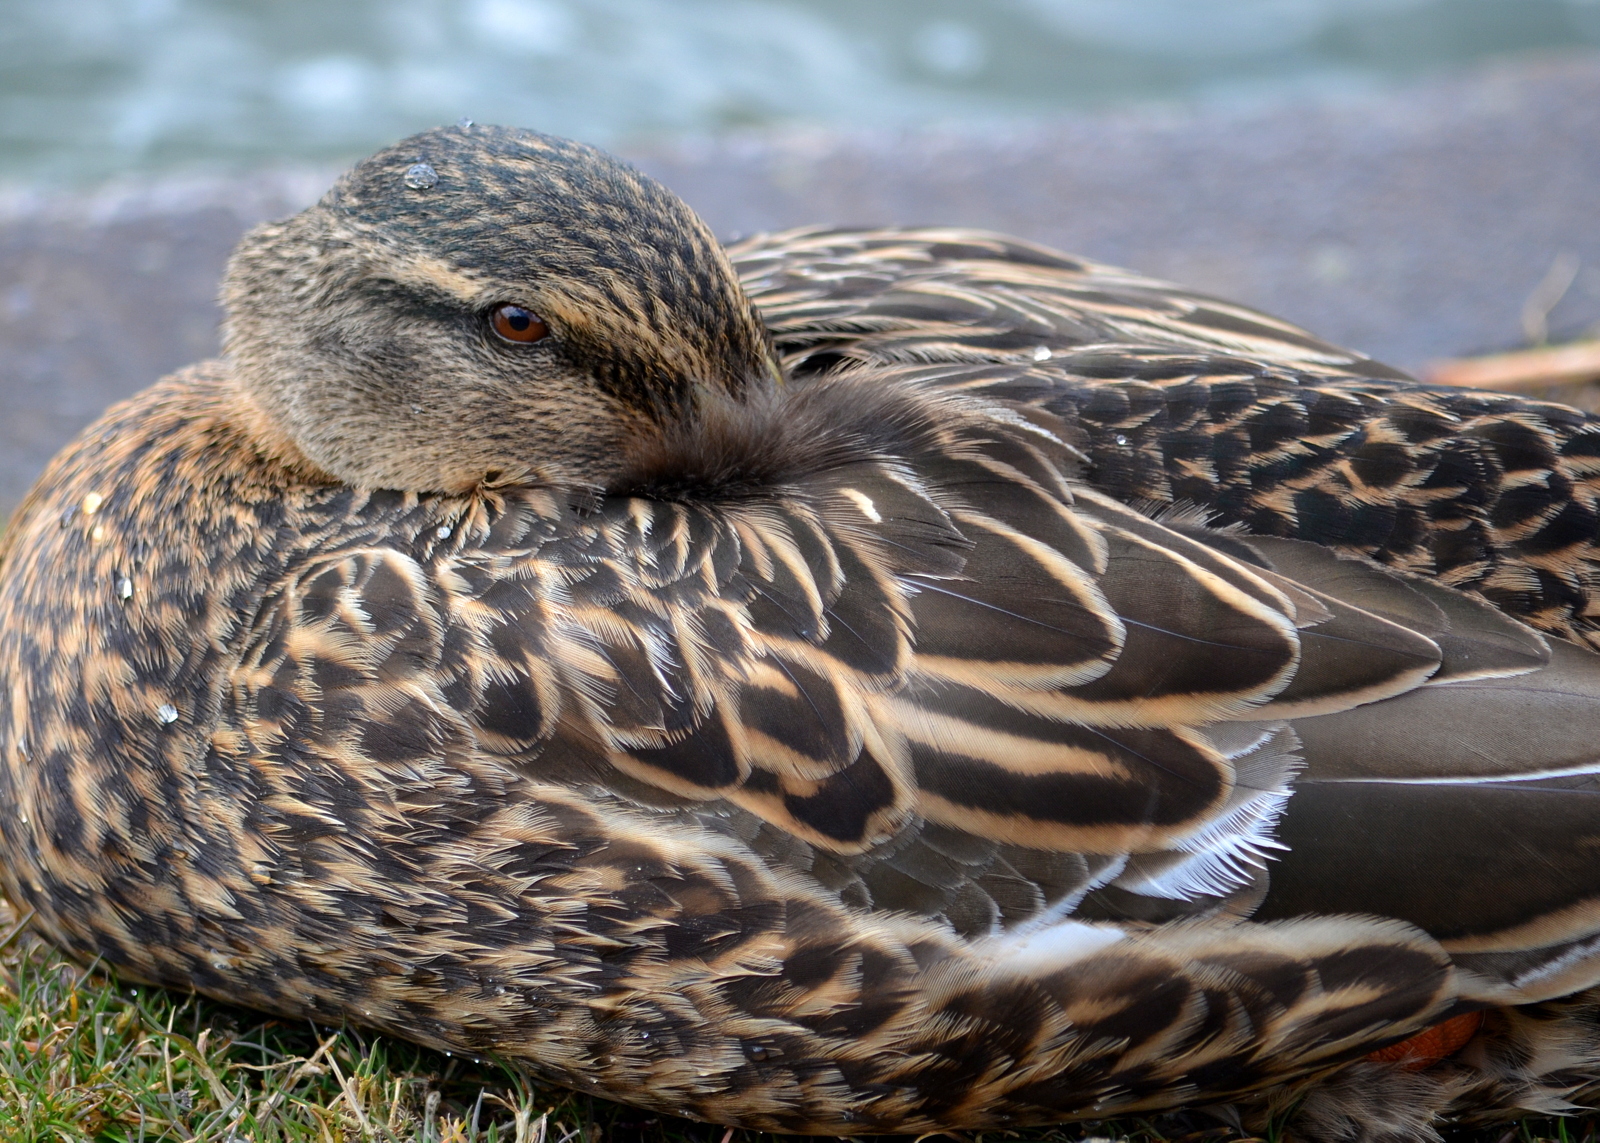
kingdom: Animalia
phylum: Chordata
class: Aves
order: Anseriformes
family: Anatidae
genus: Anas
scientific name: Anas platyrhynchos
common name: Mallard
